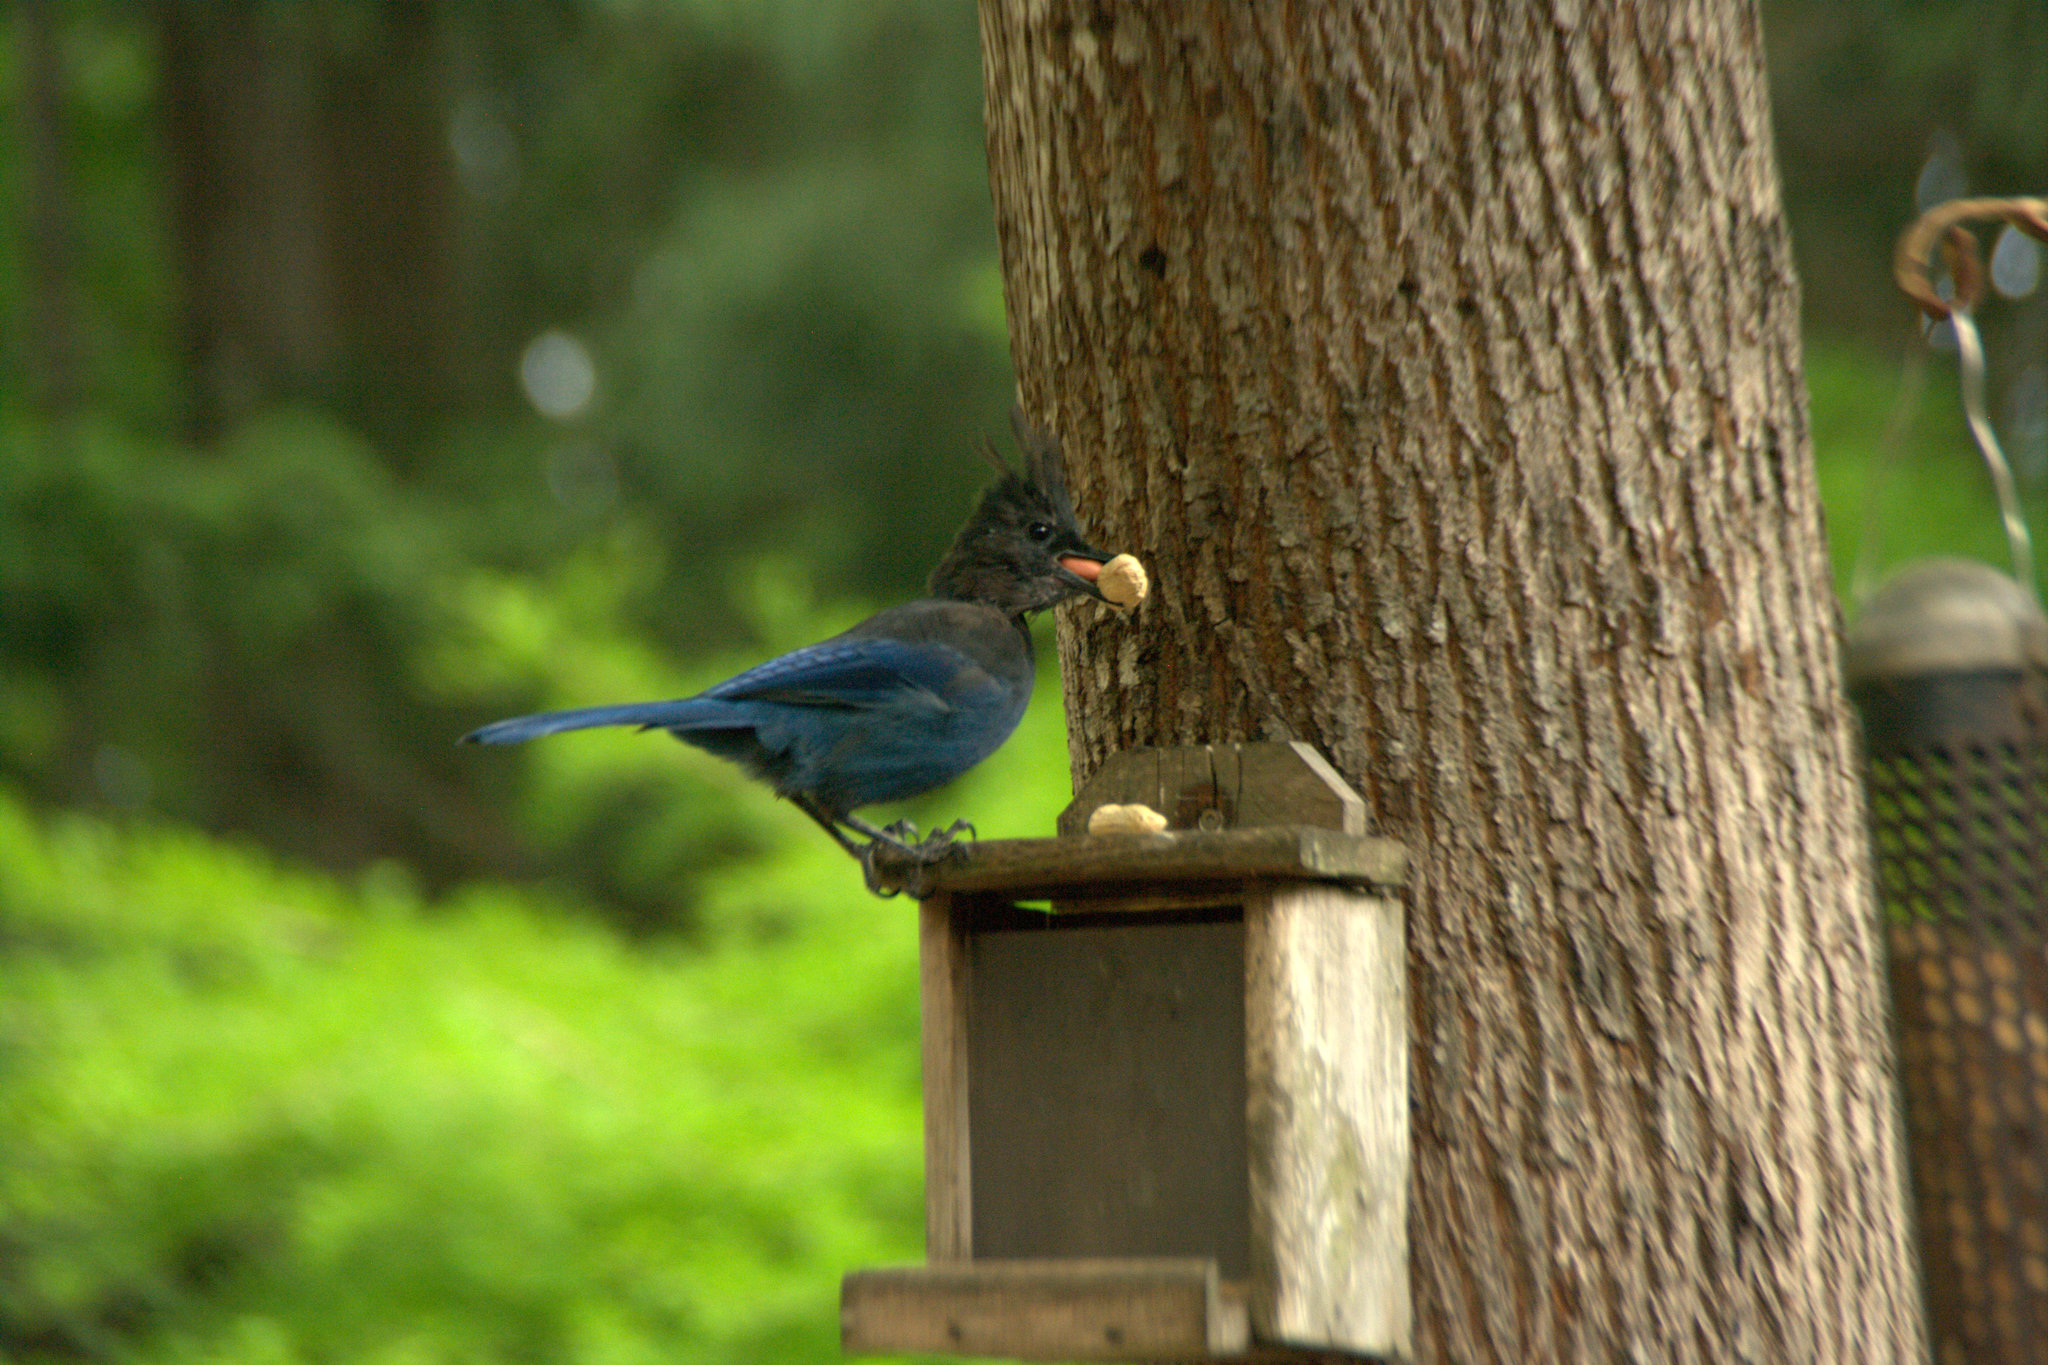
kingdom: Animalia
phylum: Chordata
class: Aves
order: Passeriformes
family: Corvidae
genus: Cyanocitta
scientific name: Cyanocitta stelleri
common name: Steller's jay
